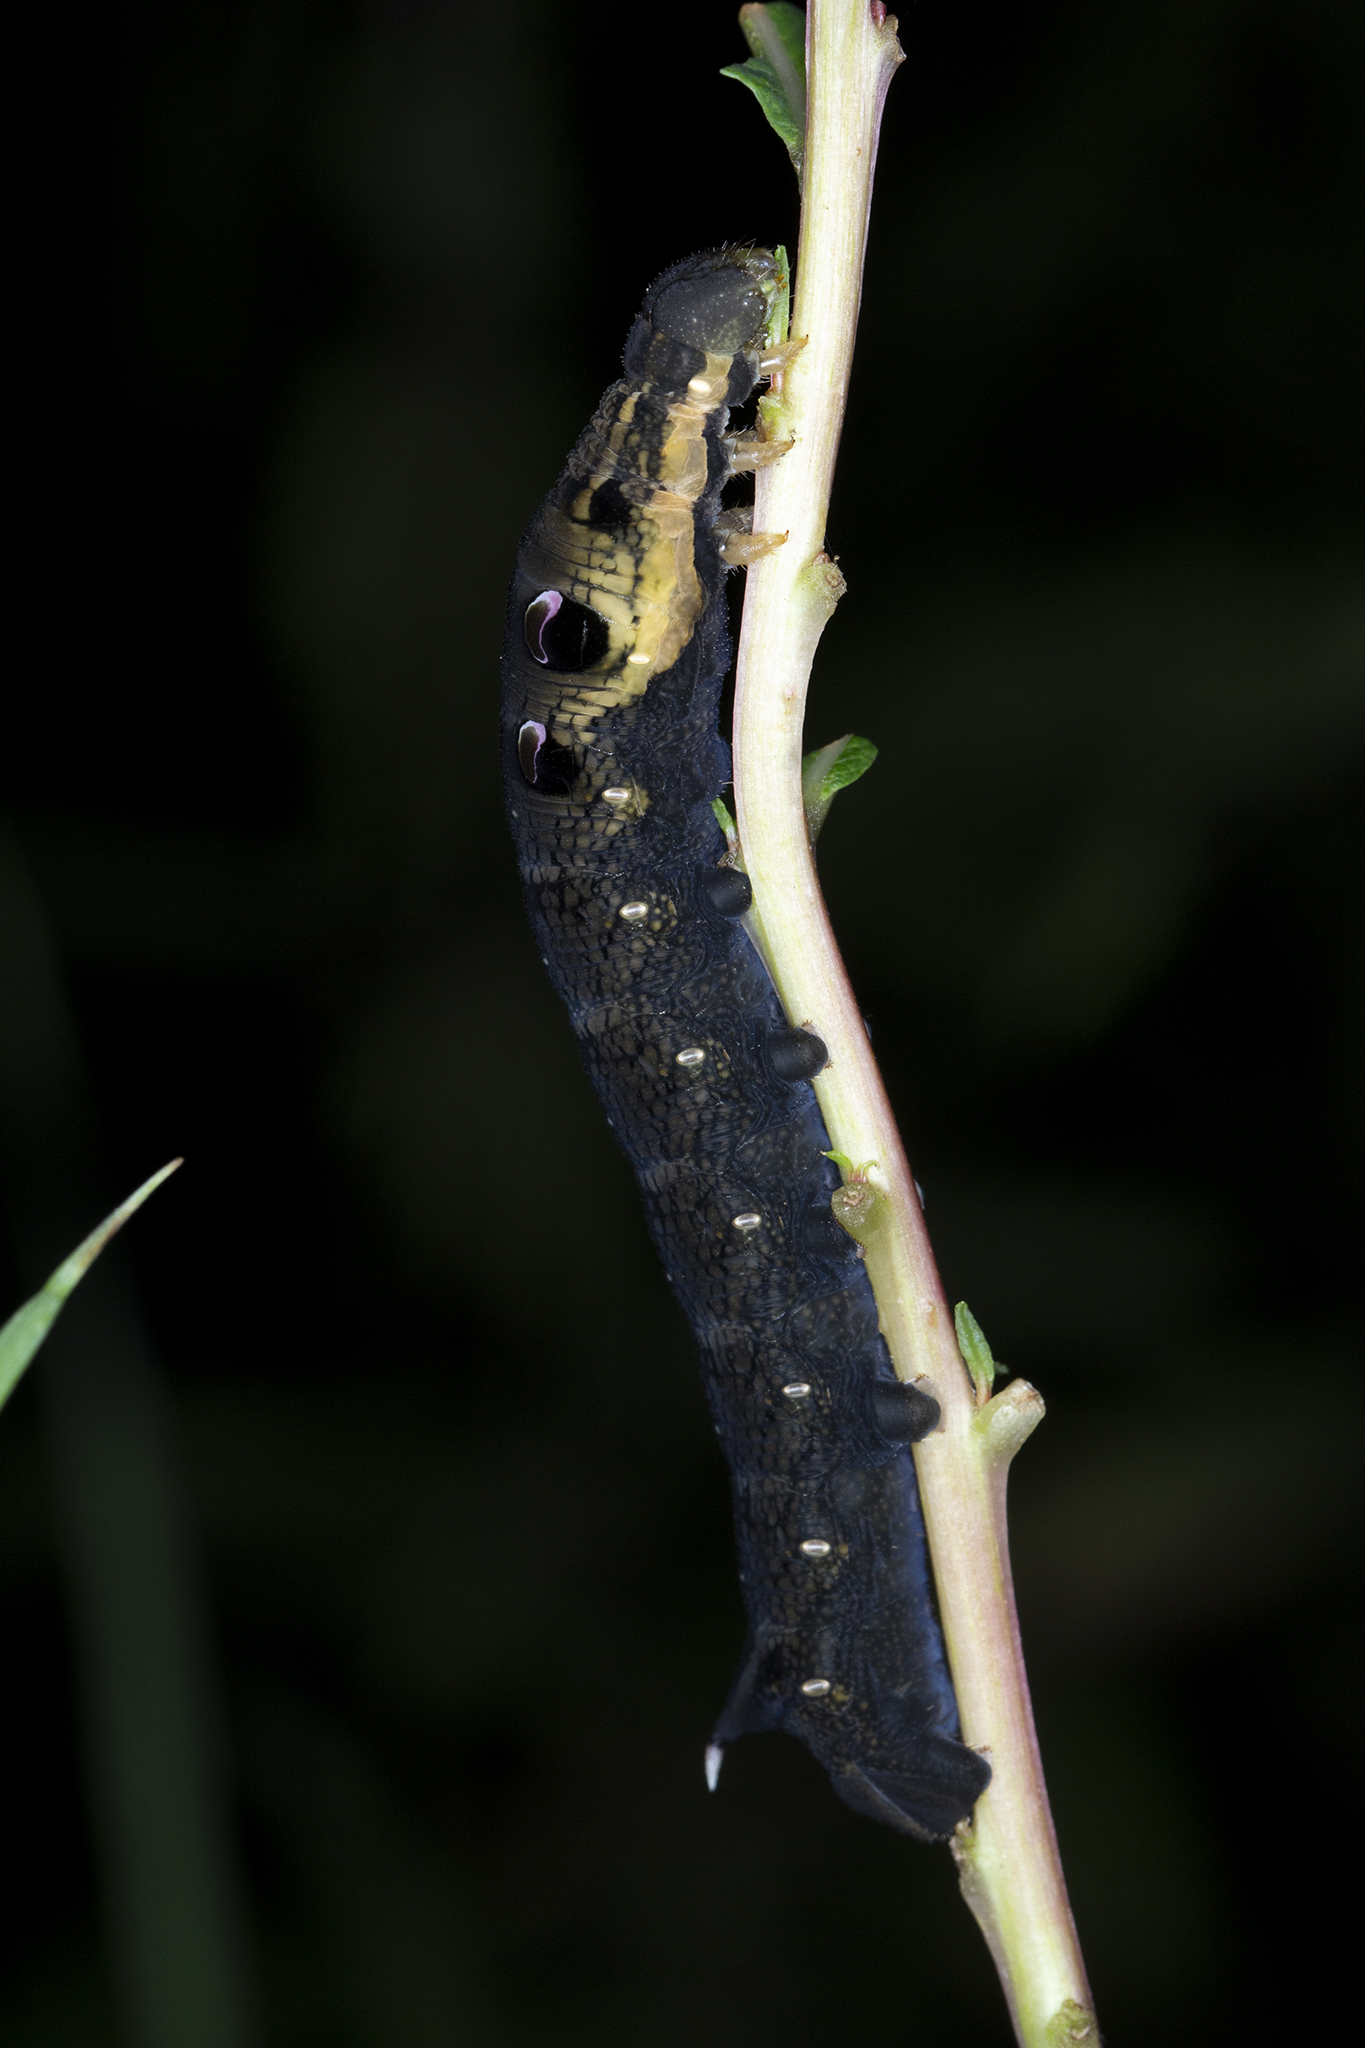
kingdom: Animalia
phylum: Arthropoda
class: Insecta
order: Lepidoptera
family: Sphingidae
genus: Deilephila
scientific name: Deilephila elpenor
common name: Elephant hawk-moth
